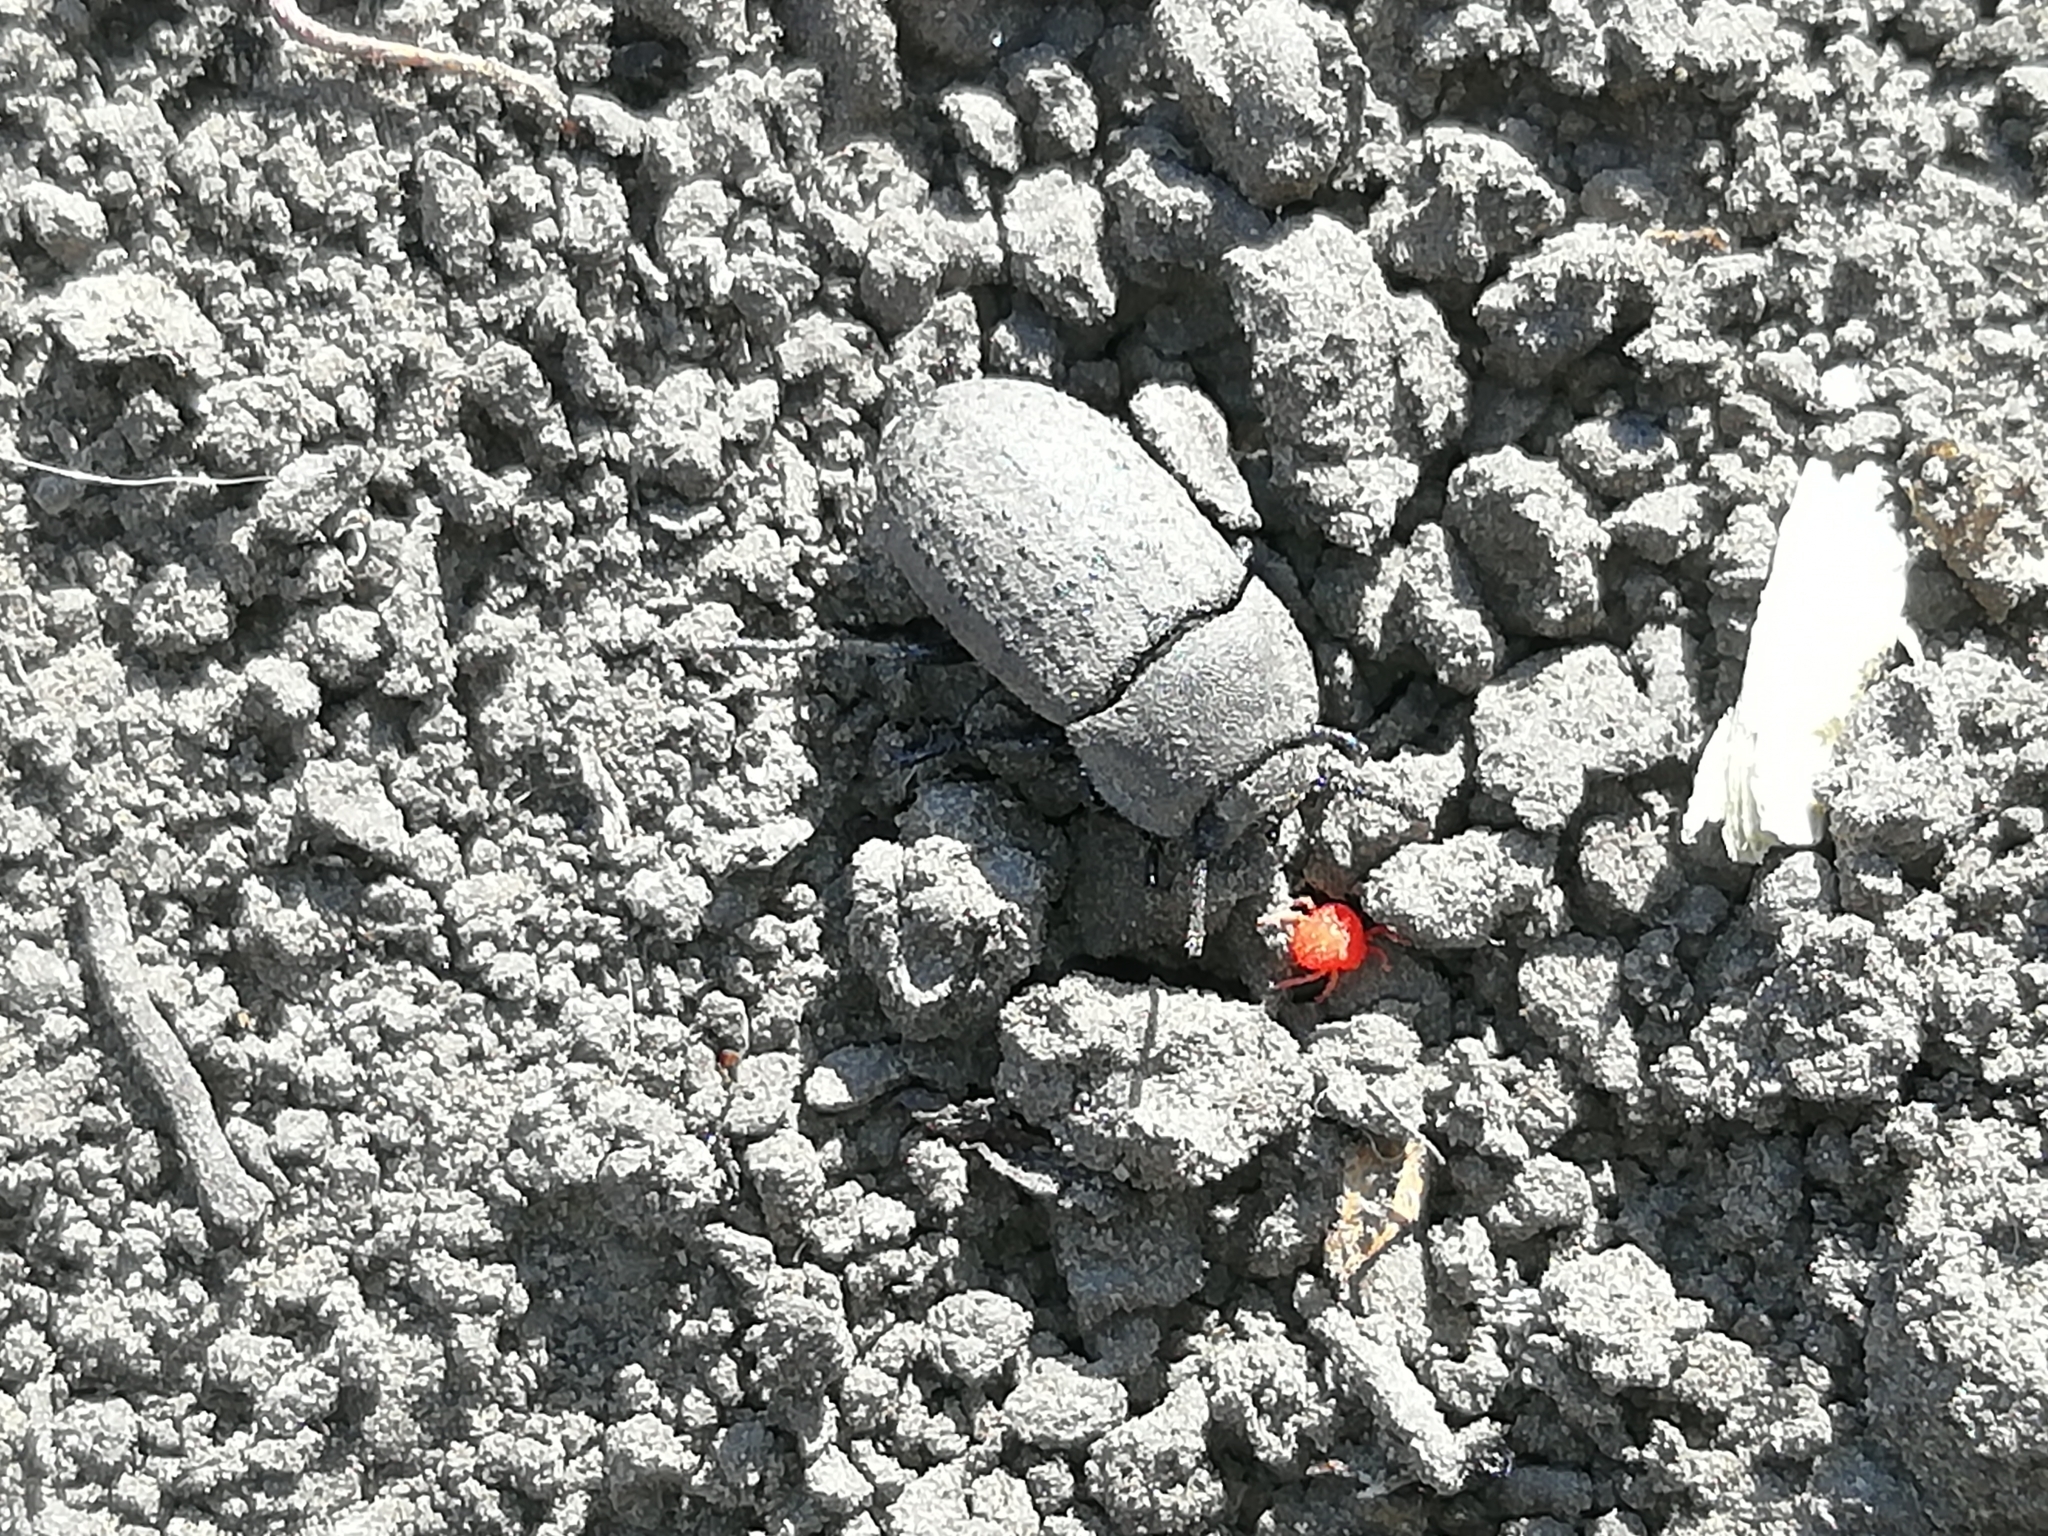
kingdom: Animalia
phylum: Arthropoda
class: Insecta
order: Coleoptera
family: Tenebrionidae
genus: Opatrum
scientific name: Opatrum sabulosum
